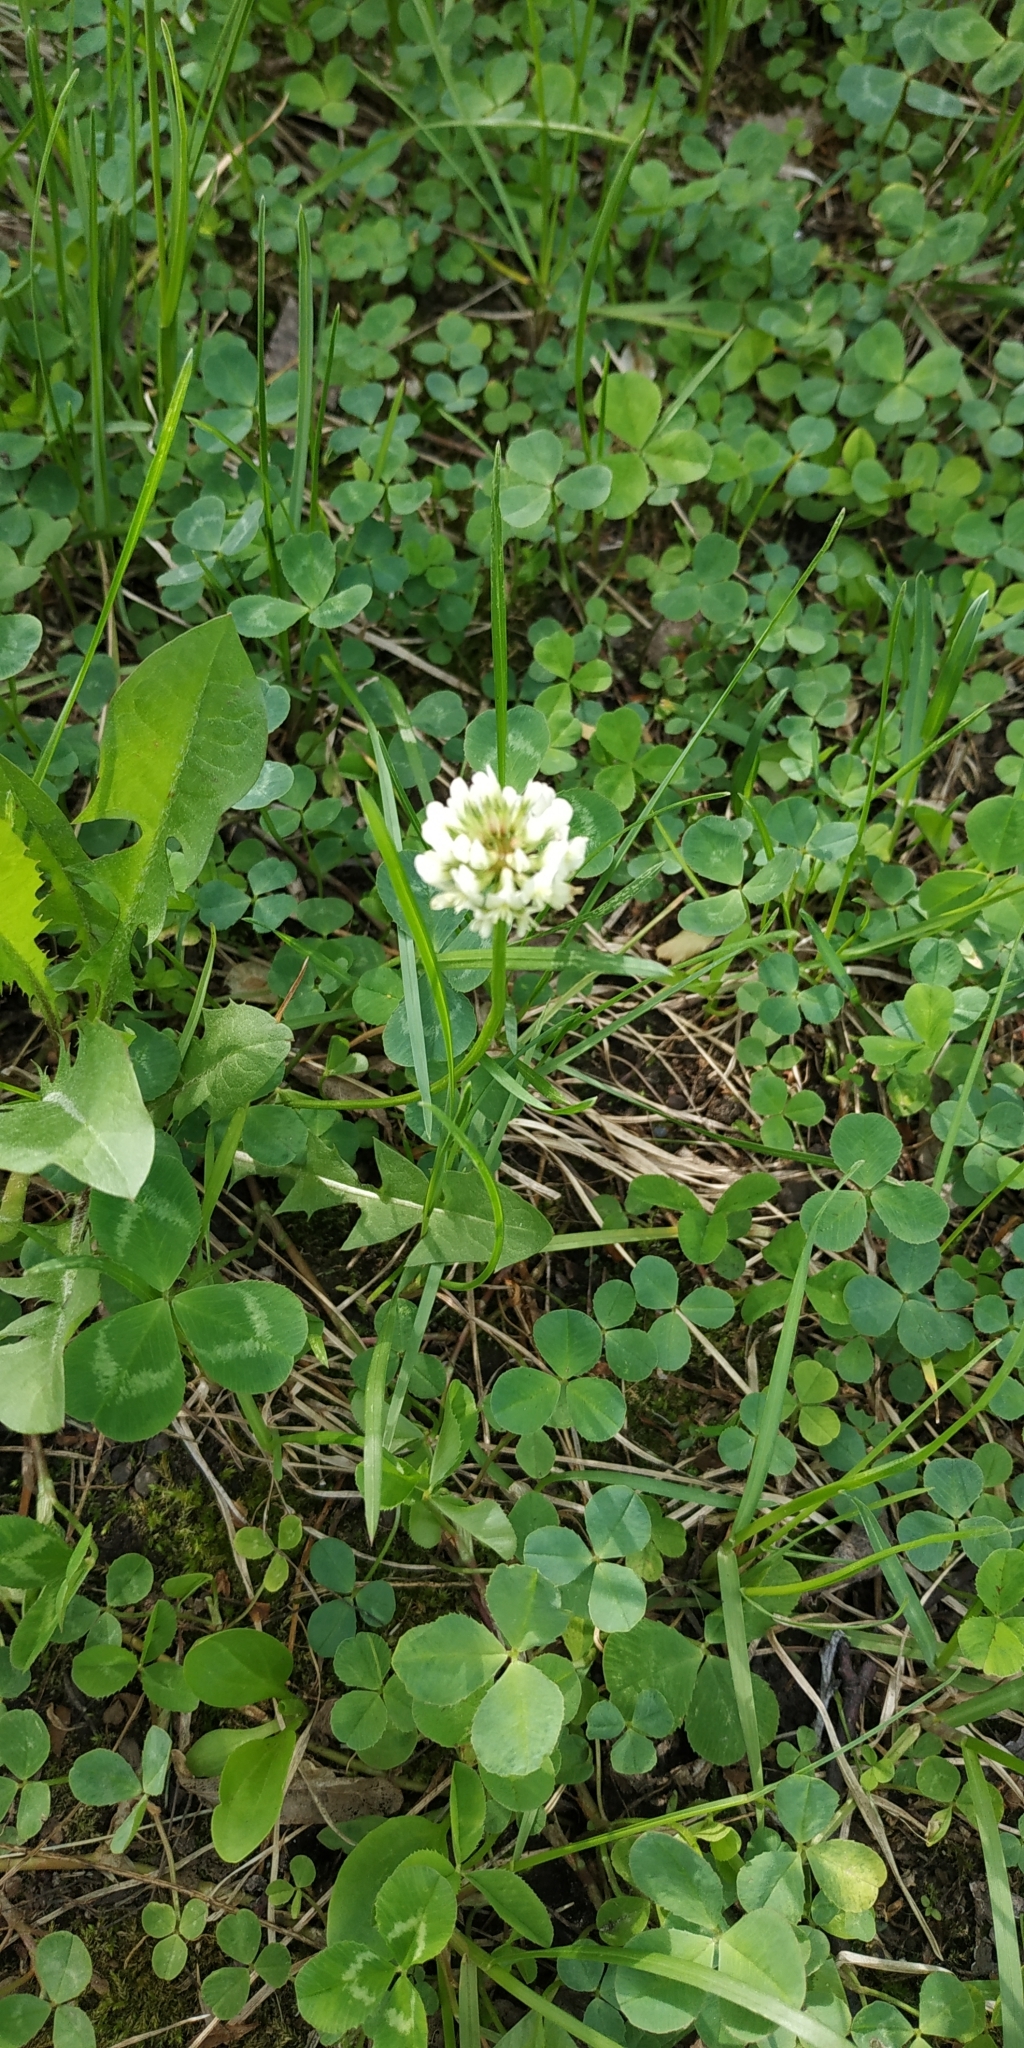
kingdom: Plantae
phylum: Tracheophyta
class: Magnoliopsida
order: Fabales
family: Fabaceae
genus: Trifolium
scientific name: Trifolium repens
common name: White clover
